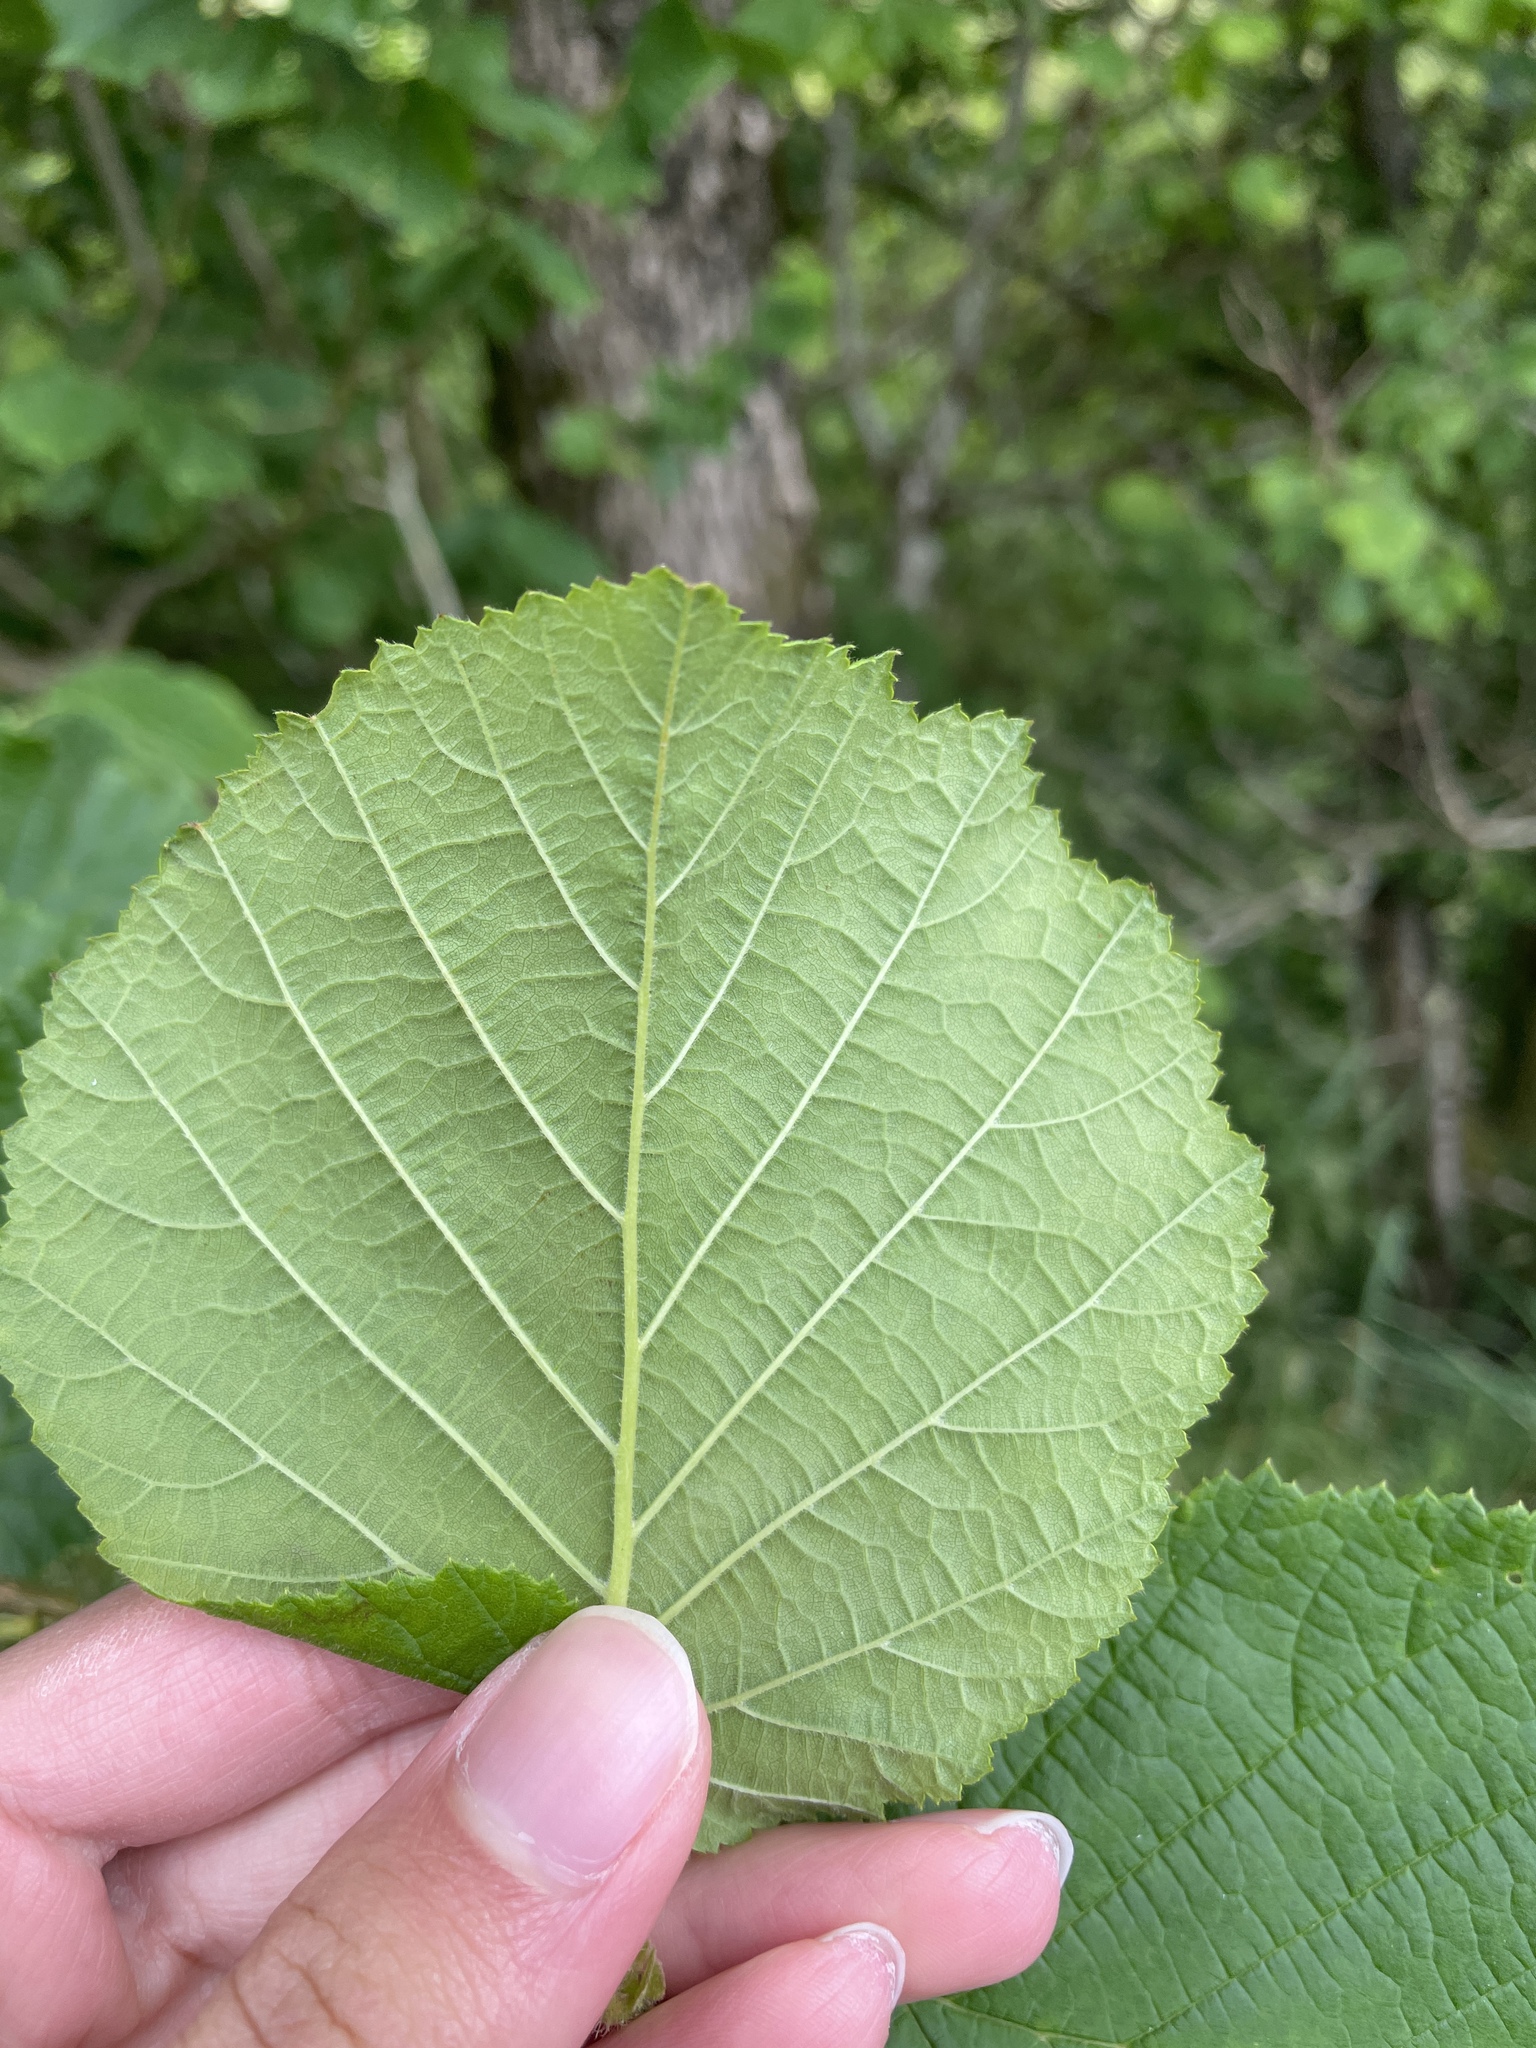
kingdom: Plantae
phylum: Tracheophyta
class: Magnoliopsida
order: Fagales
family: Betulaceae
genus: Corylus
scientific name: Corylus avellana
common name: European hazel
